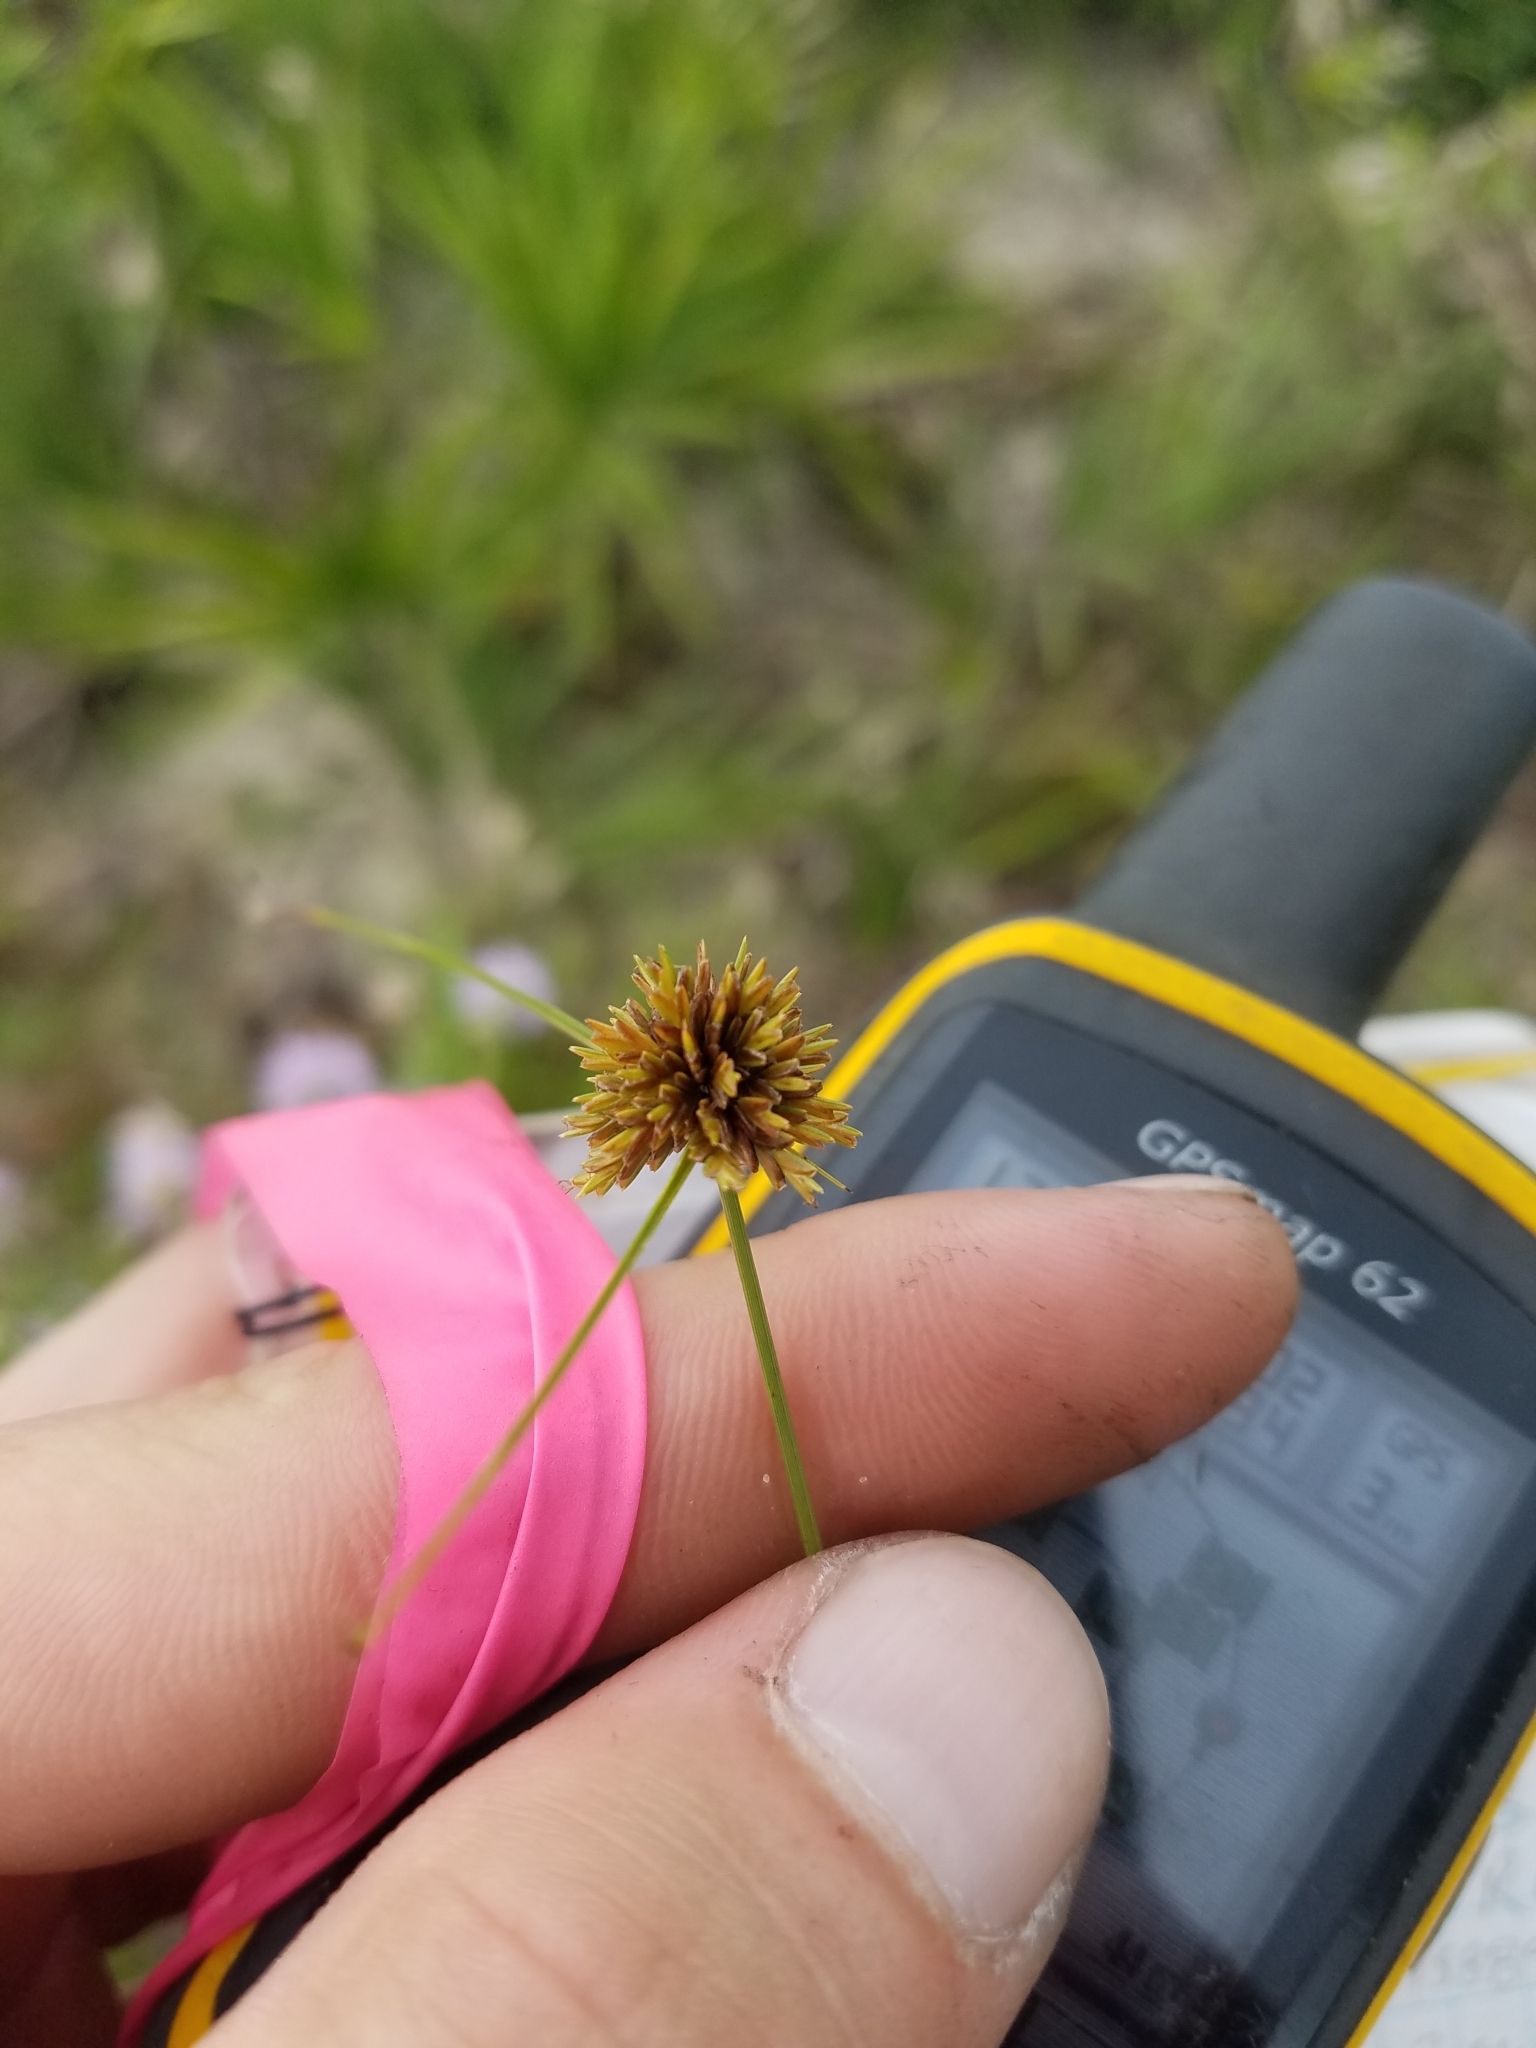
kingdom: Plantae
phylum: Tracheophyta
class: Liliopsida
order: Poales
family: Cyperaceae
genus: Cyperus
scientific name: Cyperus filiculmis
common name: Slender sand sedge
